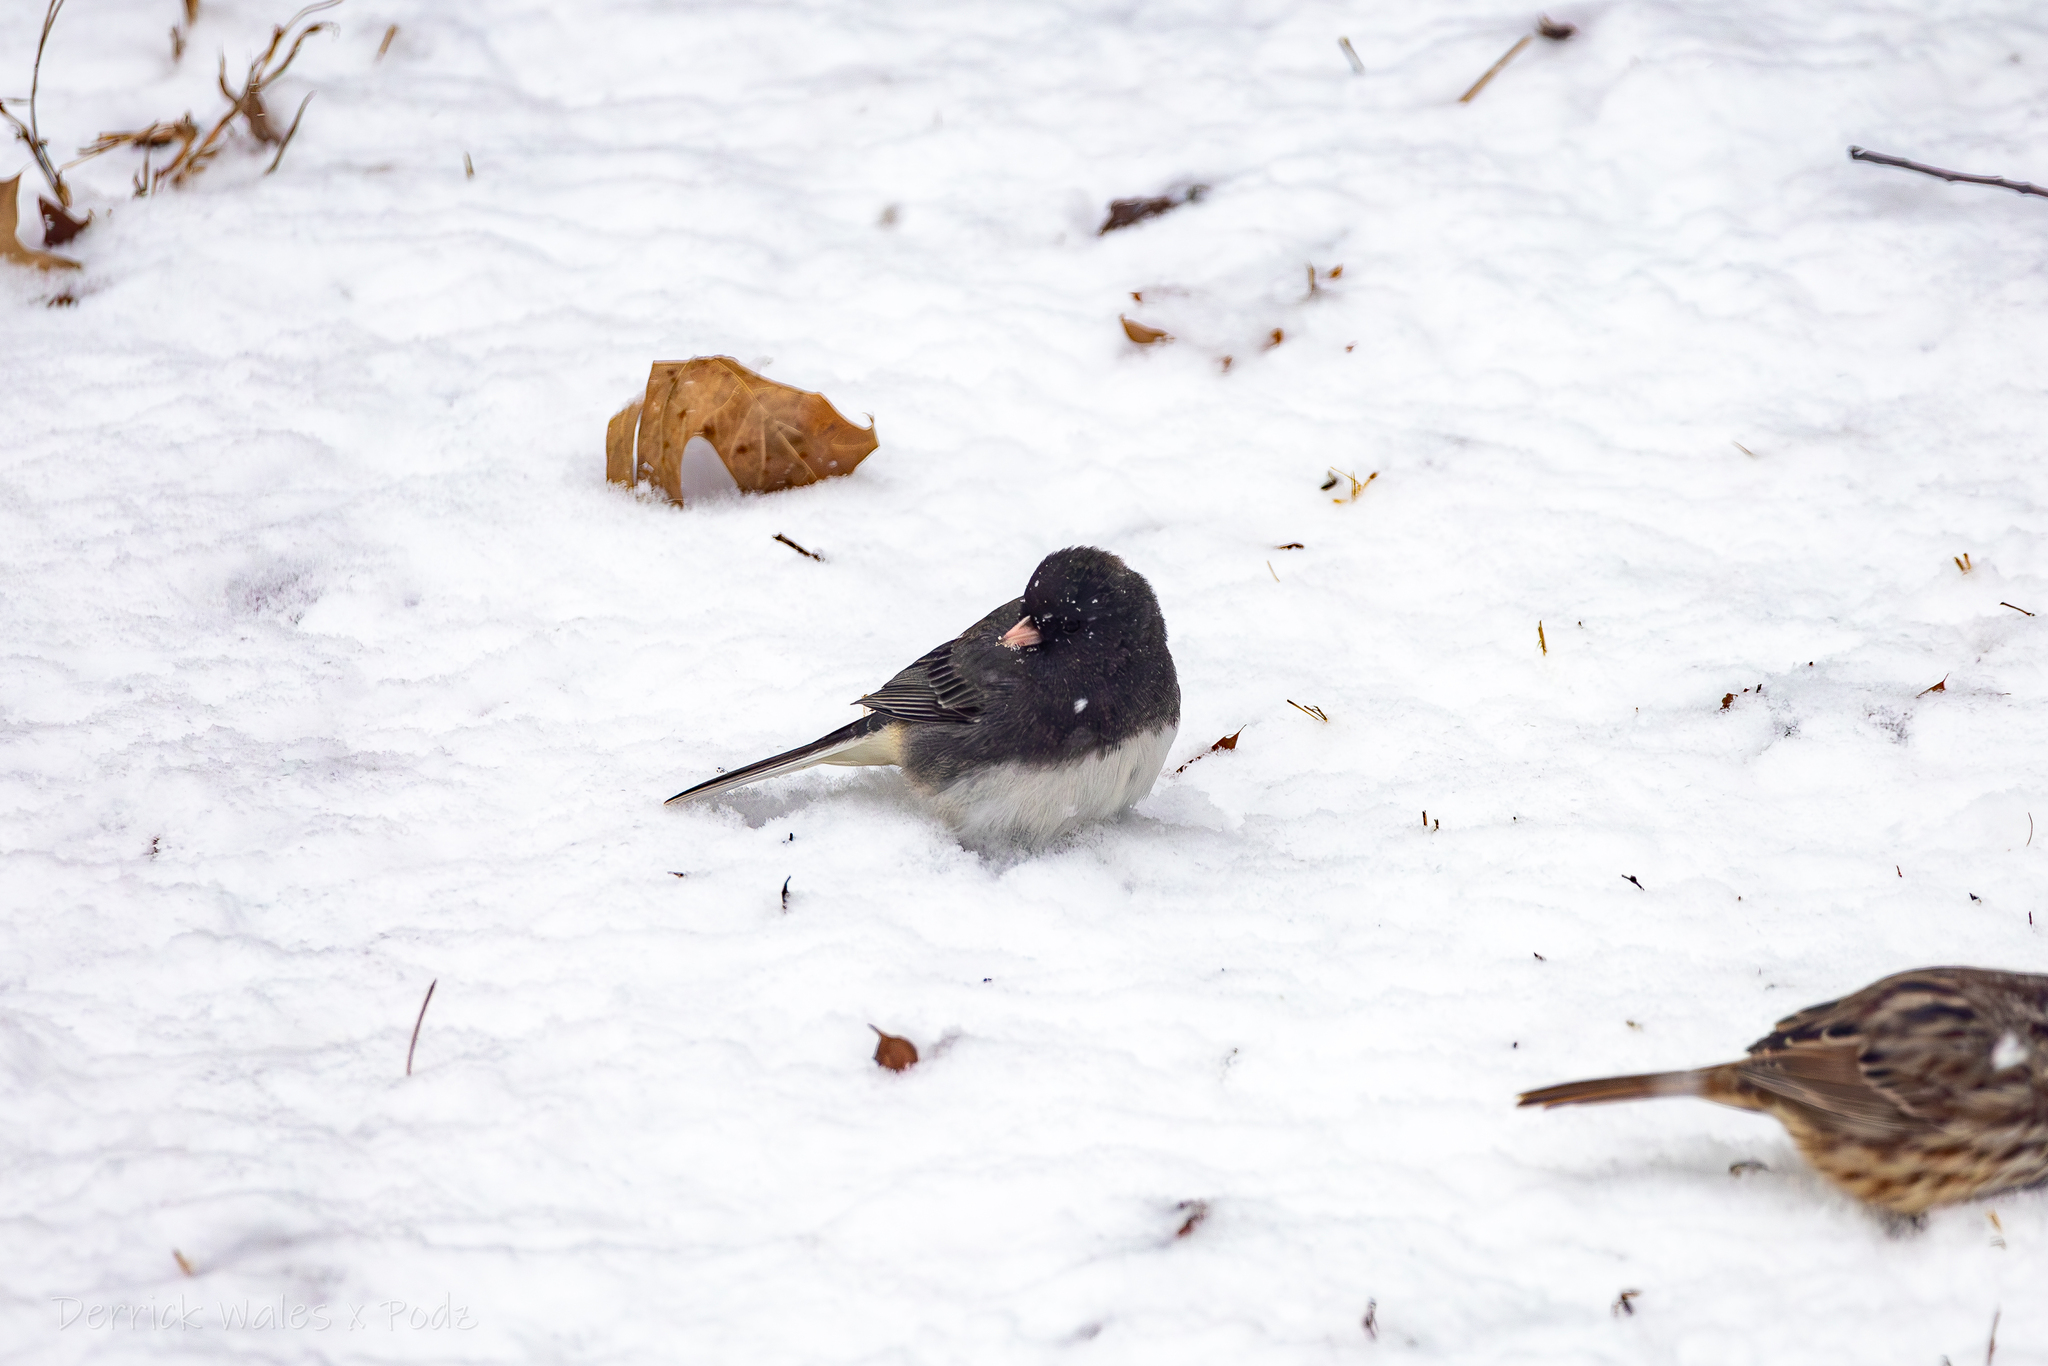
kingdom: Animalia
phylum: Chordata
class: Aves
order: Passeriformes
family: Passerellidae
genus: Junco
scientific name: Junco hyemalis
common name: Dark-eyed junco
